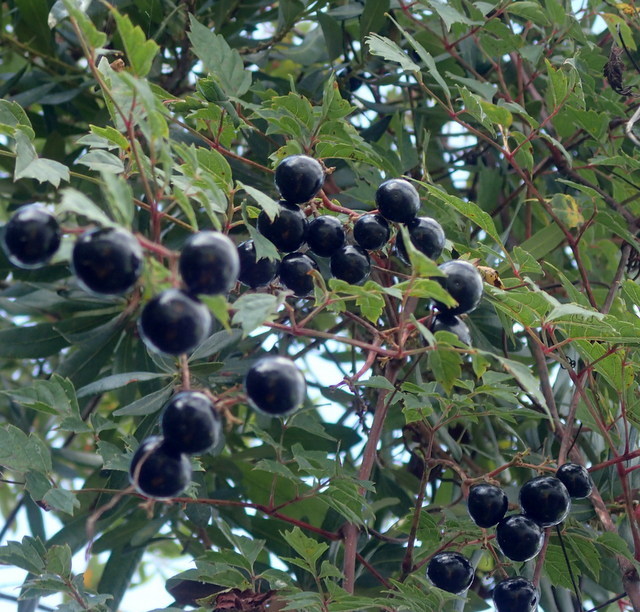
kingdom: Plantae
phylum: Tracheophyta
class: Magnoliopsida
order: Vitales
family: Vitaceae
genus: Nekemias
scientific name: Nekemias arborea
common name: Peppervine
